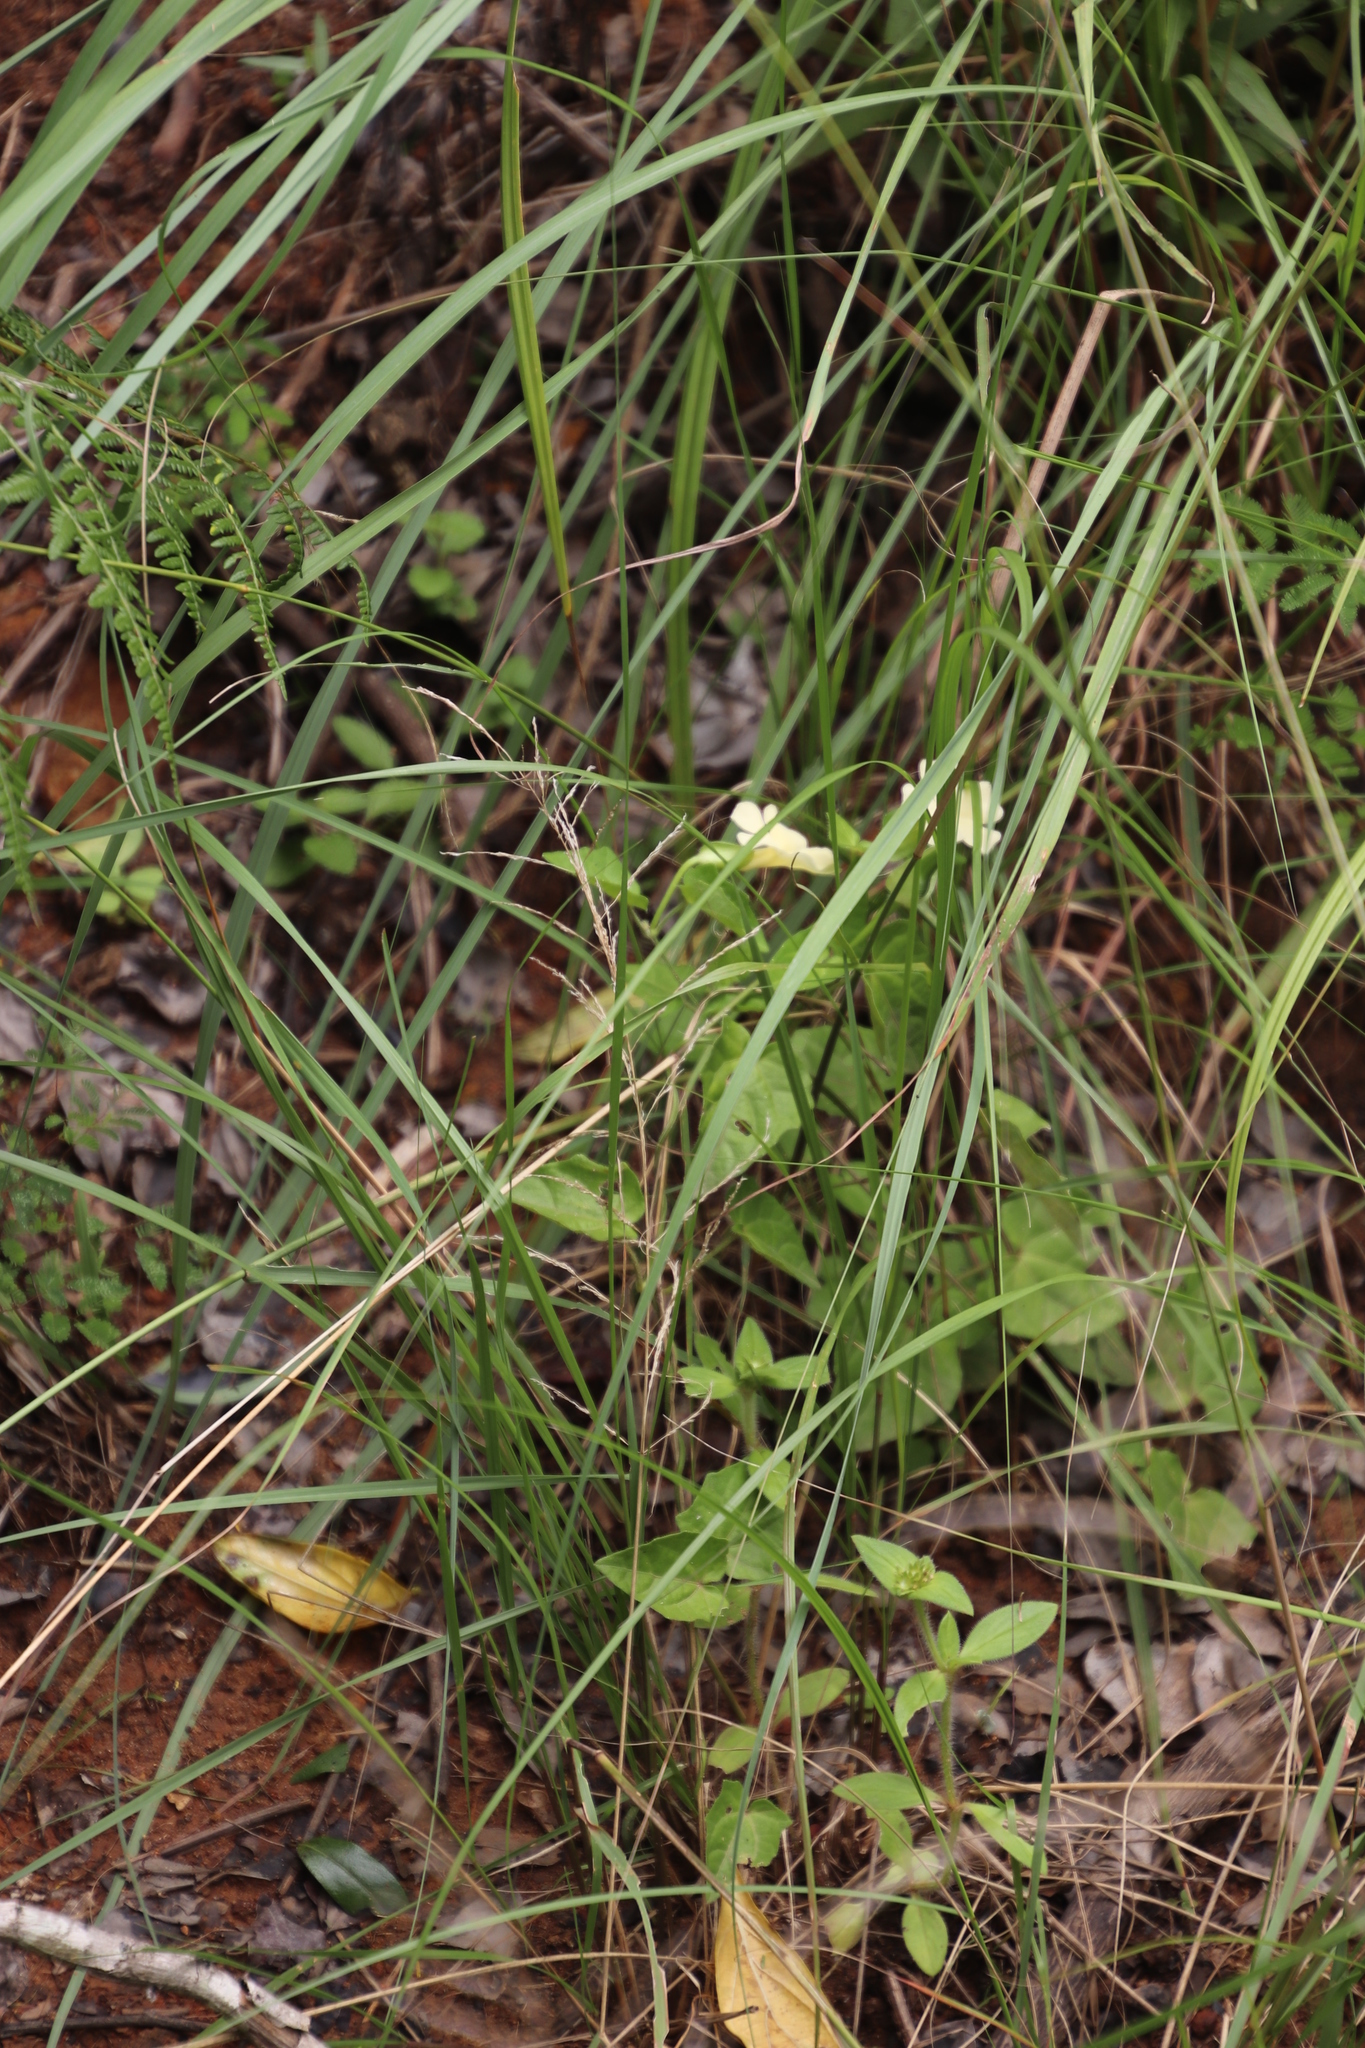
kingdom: Plantae
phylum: Tracheophyta
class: Magnoliopsida
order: Lamiales
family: Acanthaceae
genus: Thunbergia
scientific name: Thunbergia neglecta
